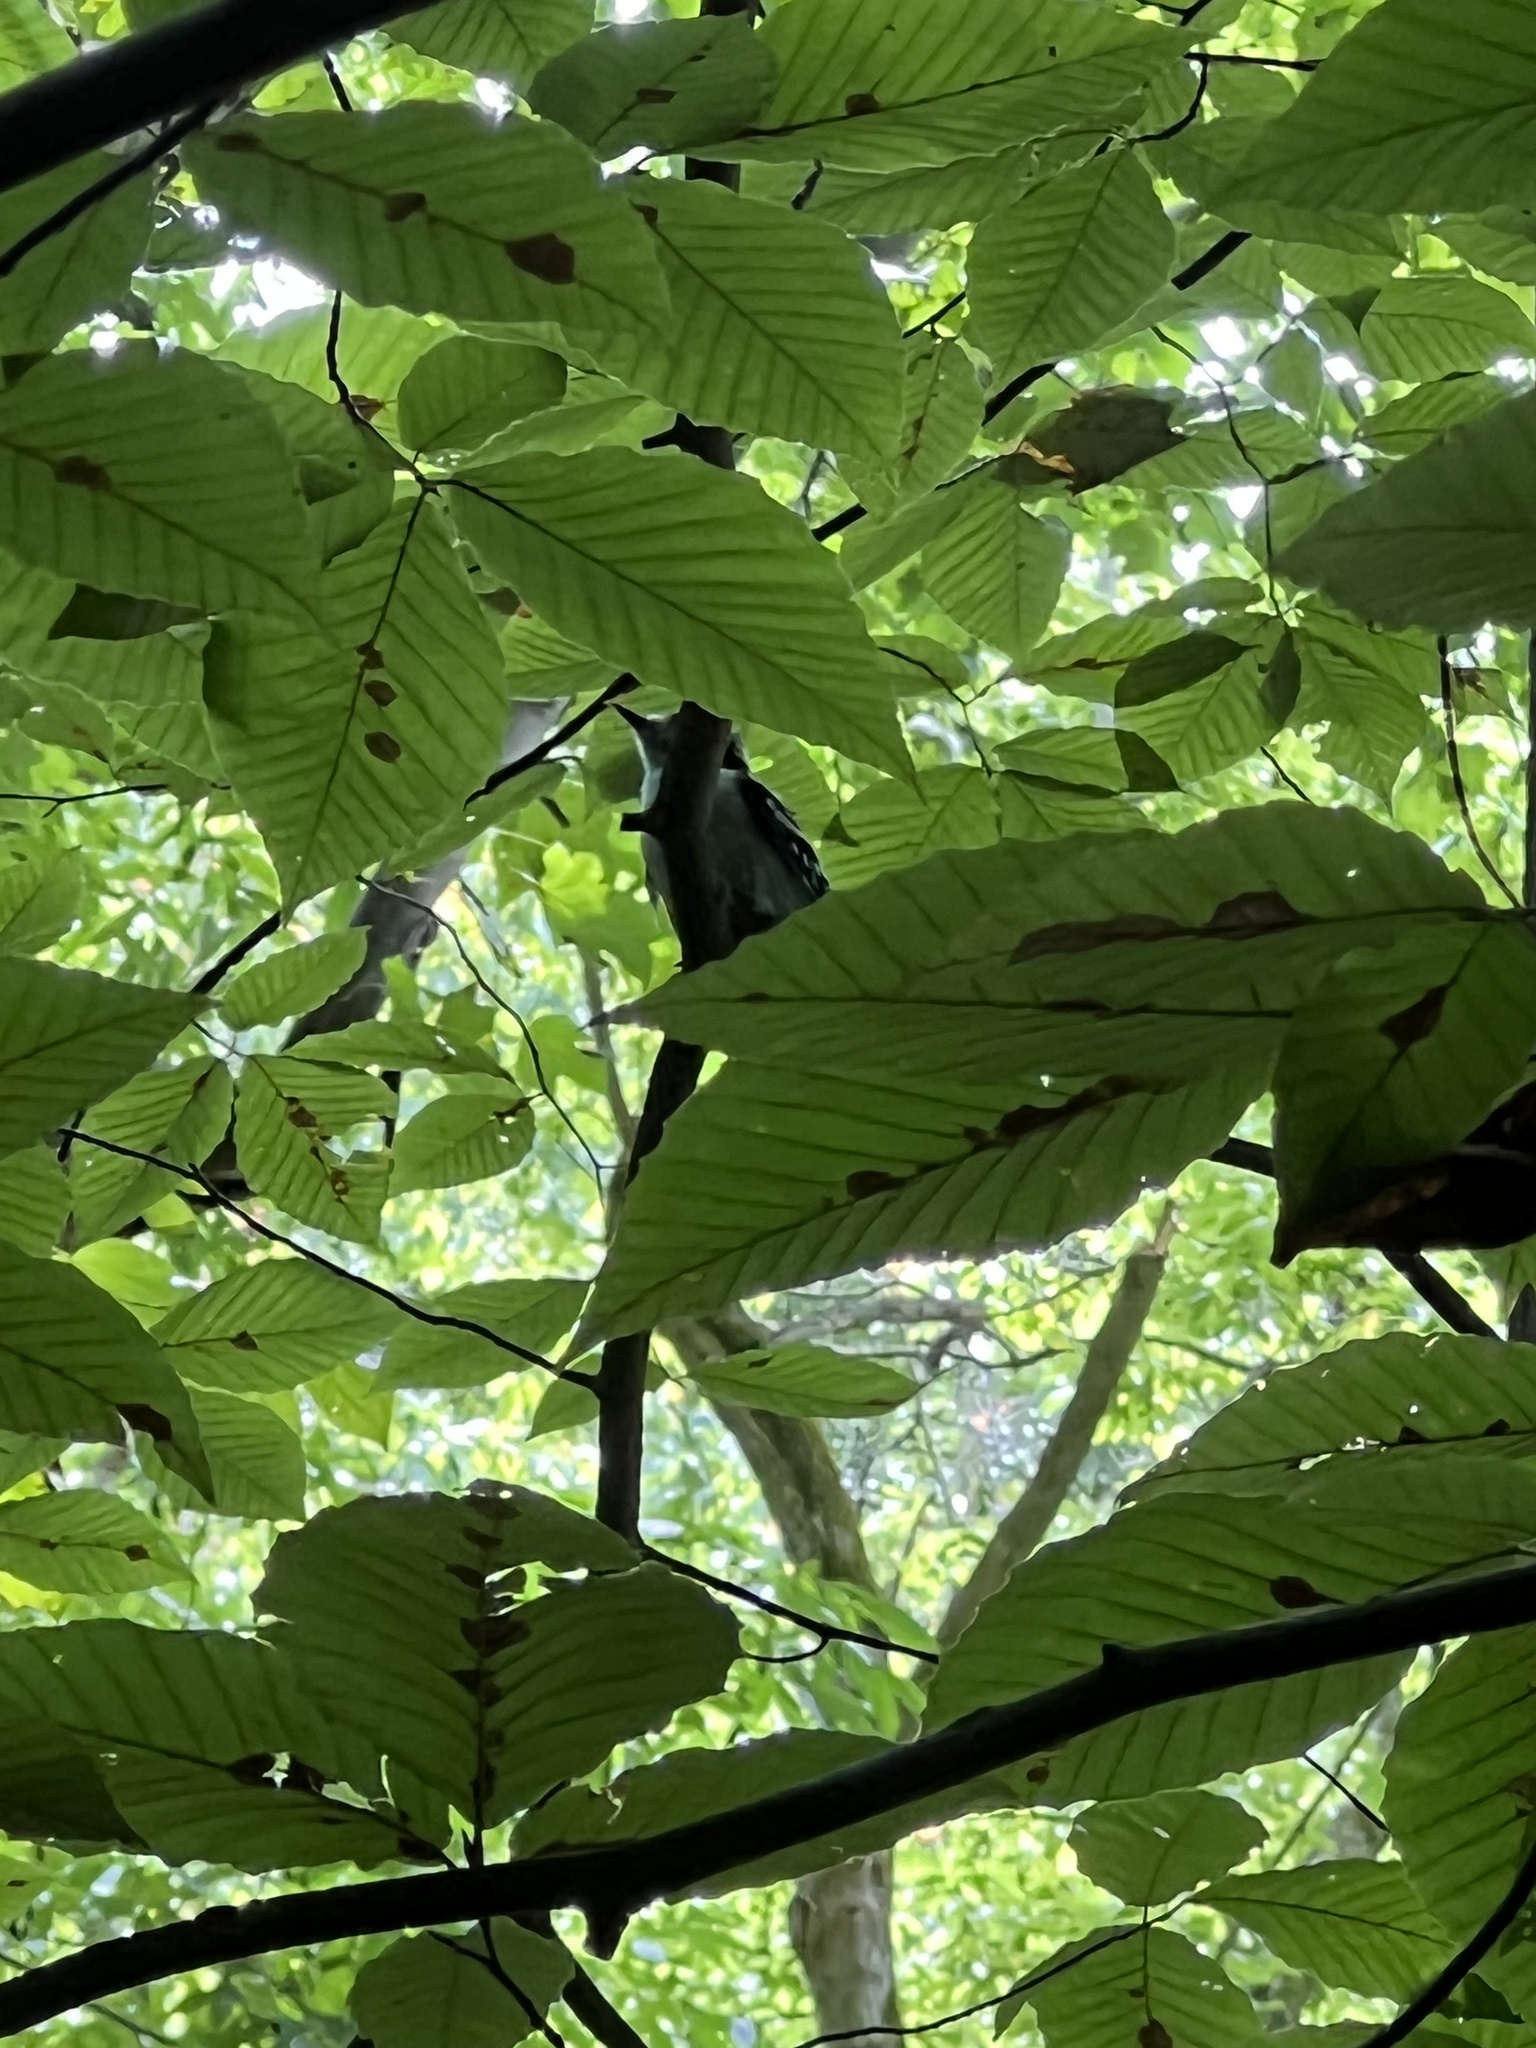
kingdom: Animalia
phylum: Chordata
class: Aves
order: Piciformes
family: Picidae
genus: Dryobates
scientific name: Dryobates pubescens
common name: Downy woodpecker
